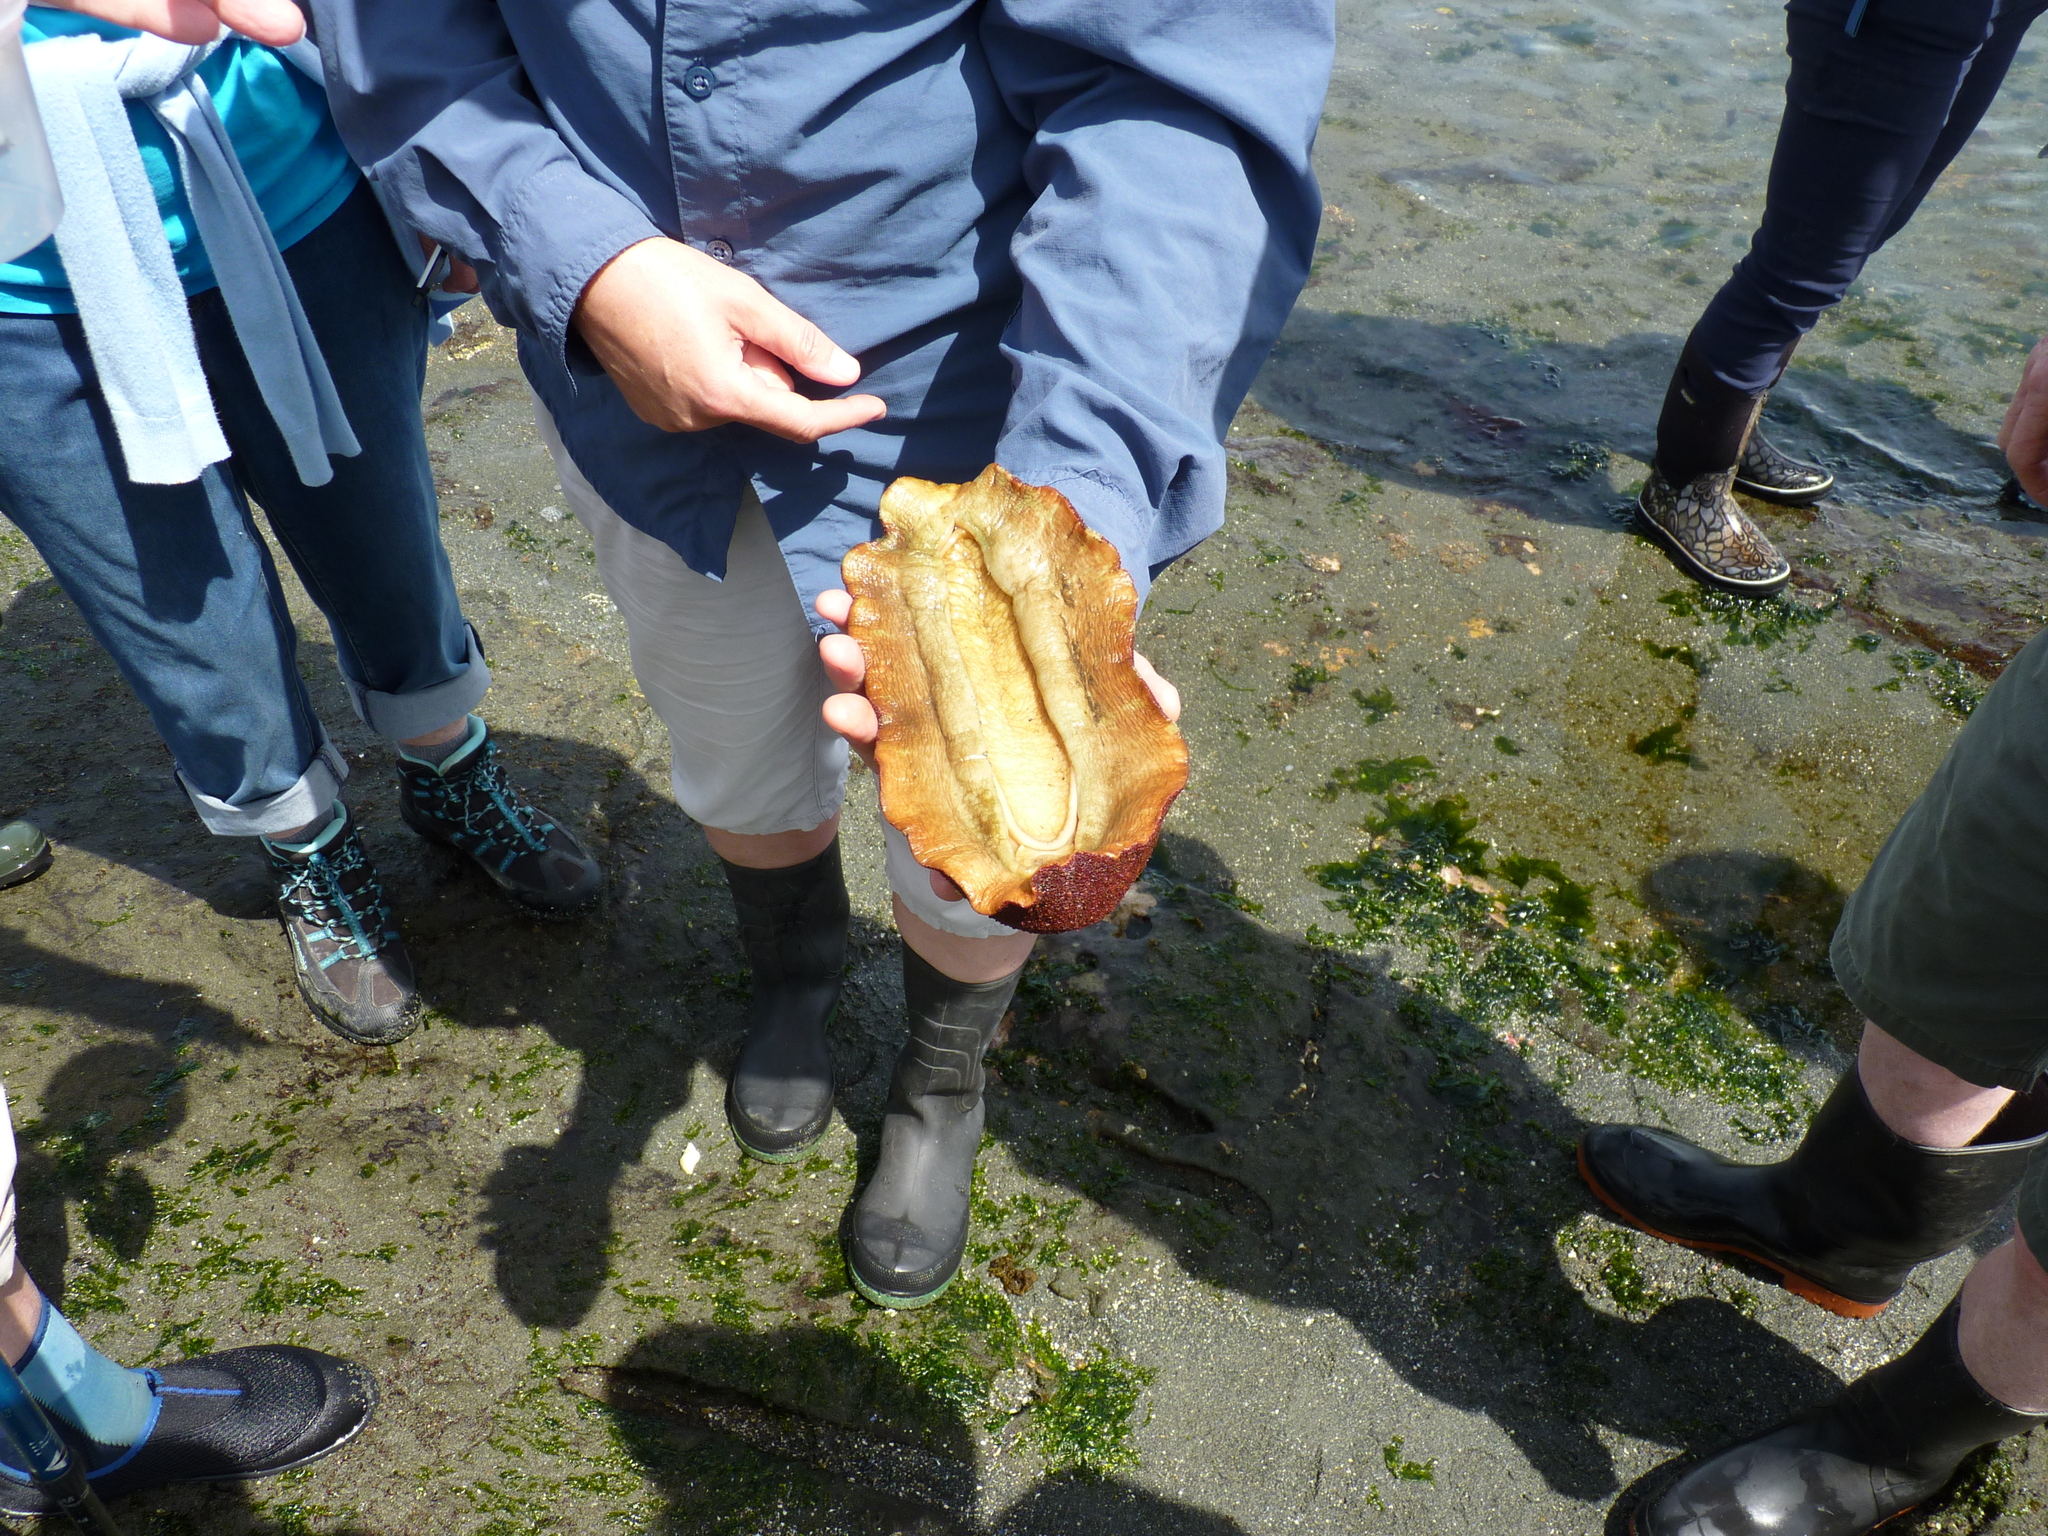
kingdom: Animalia
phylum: Mollusca
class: Polyplacophora
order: Chitonida
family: Acanthochitonidae
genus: Cryptochiton
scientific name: Cryptochiton stelleri
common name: Giant pacific chiton
